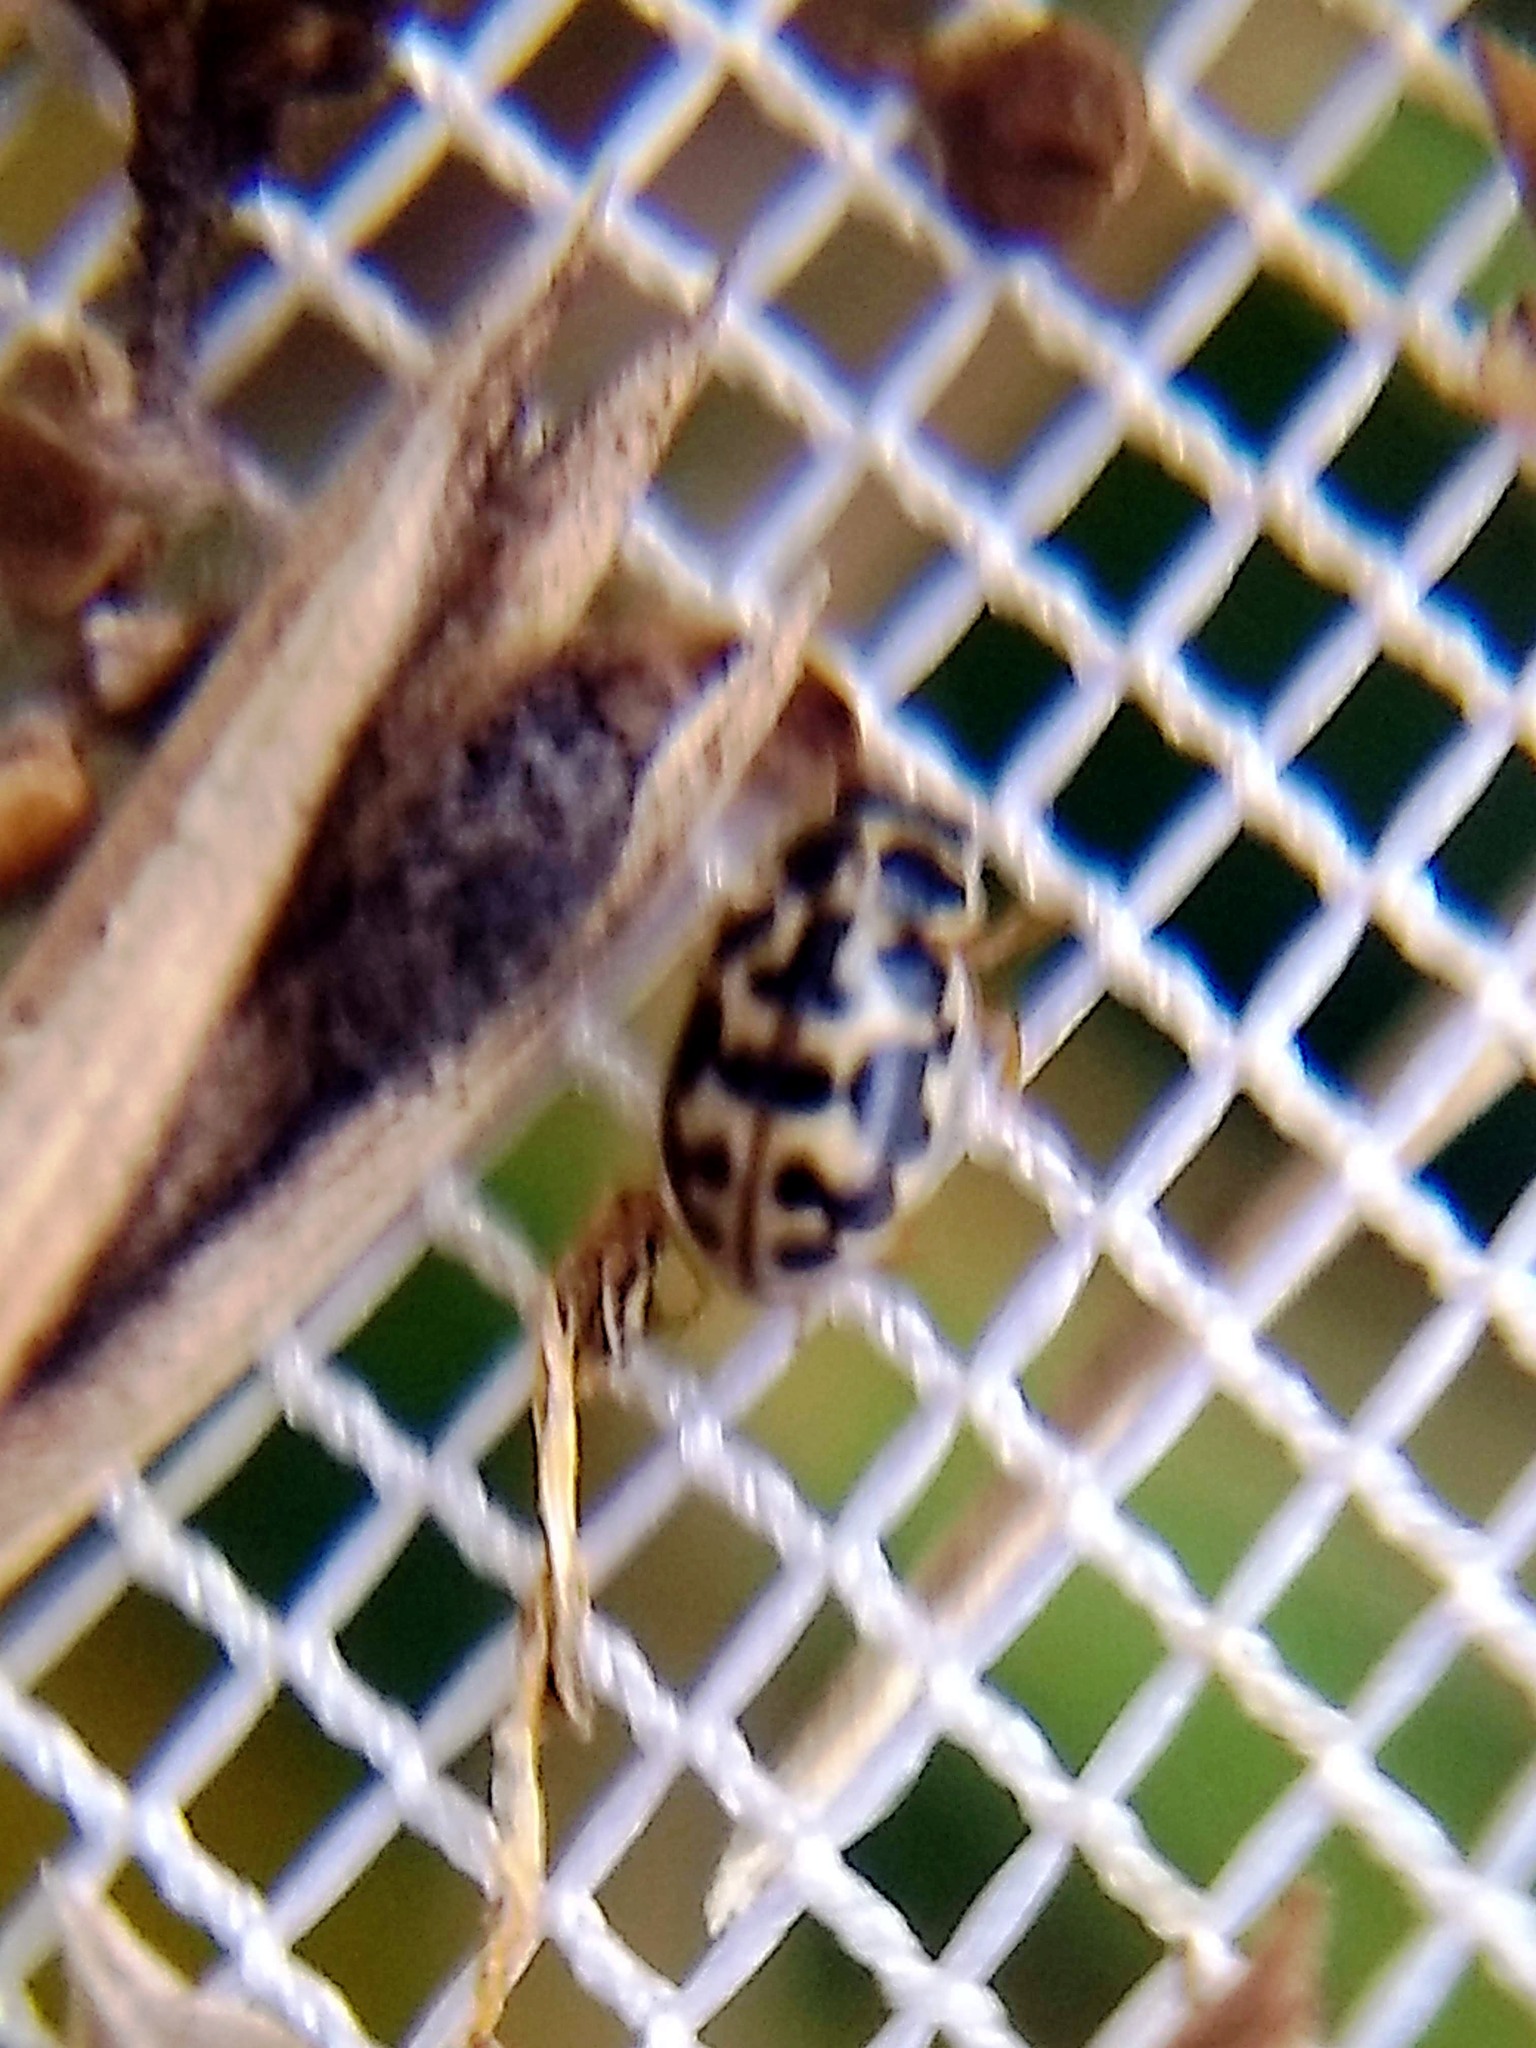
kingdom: Animalia
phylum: Arthropoda
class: Insecta
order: Coleoptera
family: Coccinellidae
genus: Anisosticta
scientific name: Anisosticta bitriangularis
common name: Marsh lady beetle
